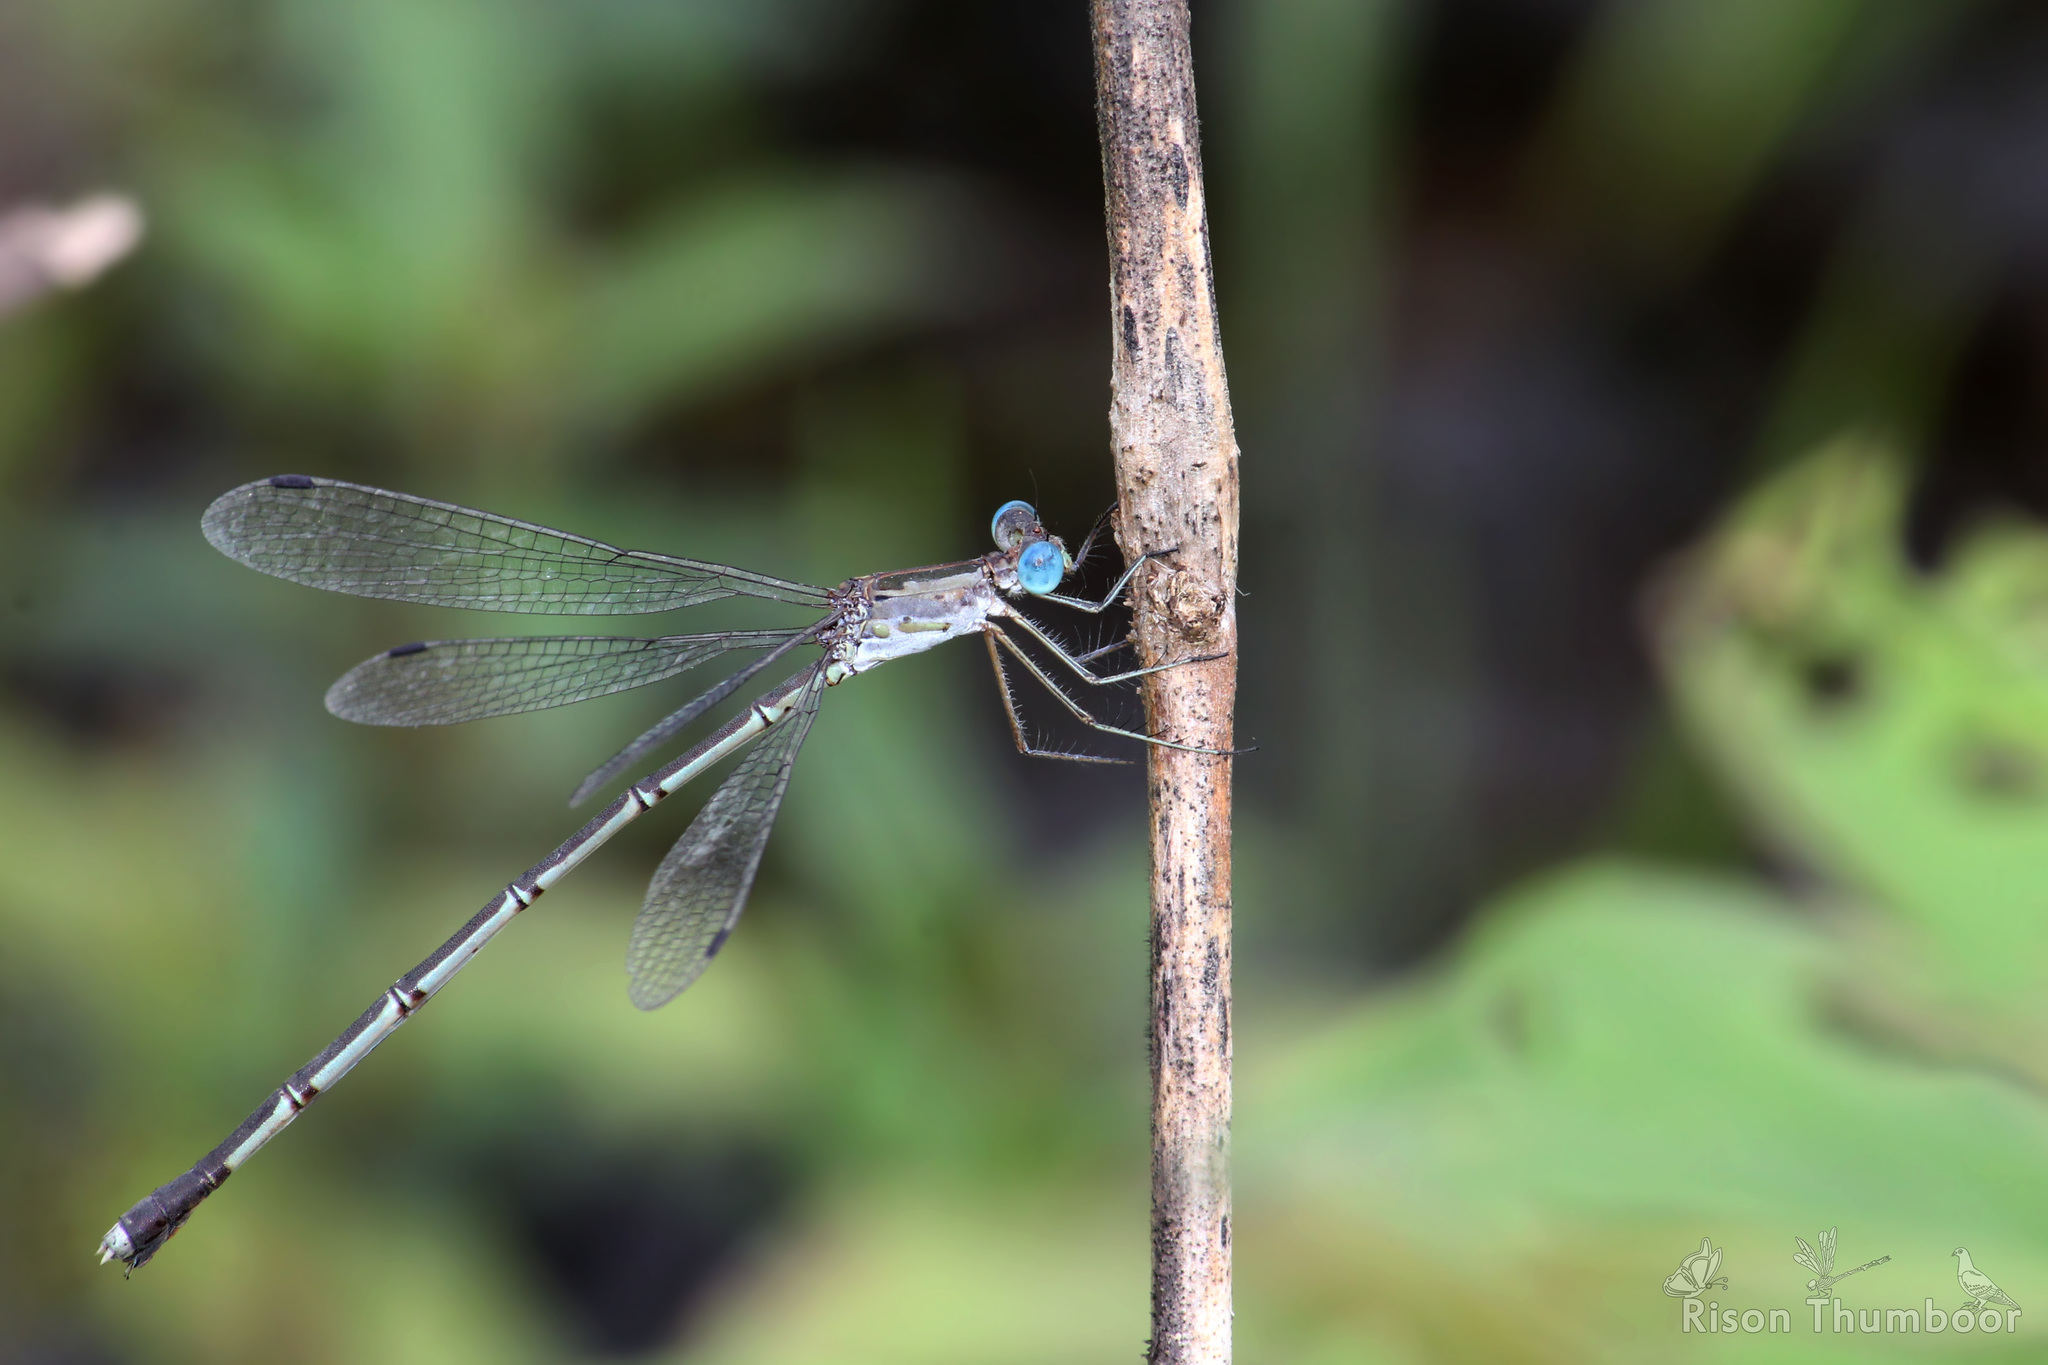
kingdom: Animalia
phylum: Arthropoda
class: Insecta
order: Odonata
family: Lestidae
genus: Lestes
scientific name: Lestes elatus
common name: Emerald spreadwing
